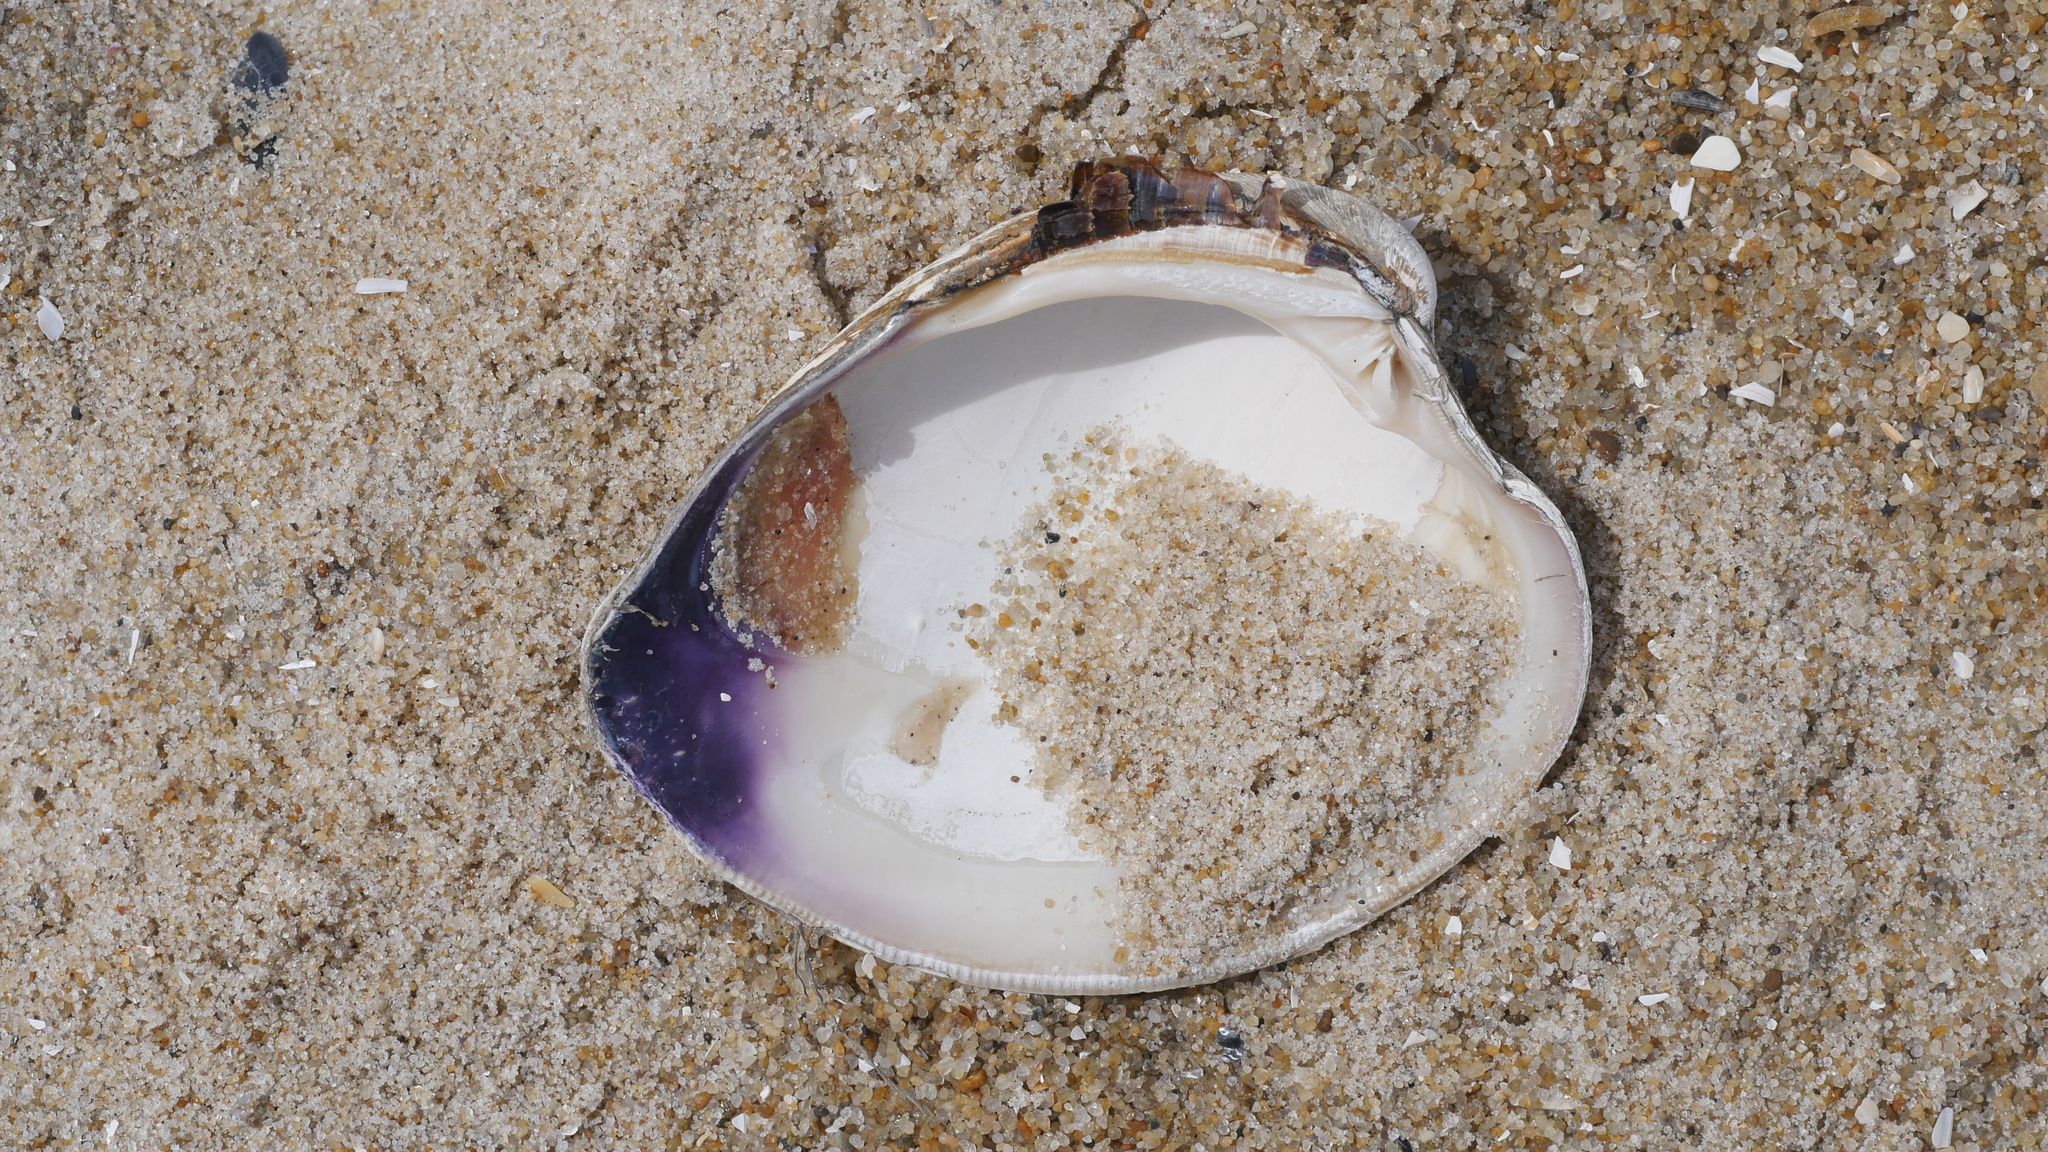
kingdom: Animalia
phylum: Mollusca
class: Bivalvia
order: Venerida
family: Veneridae
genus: Mercenaria
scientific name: Mercenaria mercenaria
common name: American hard-shelled clam
